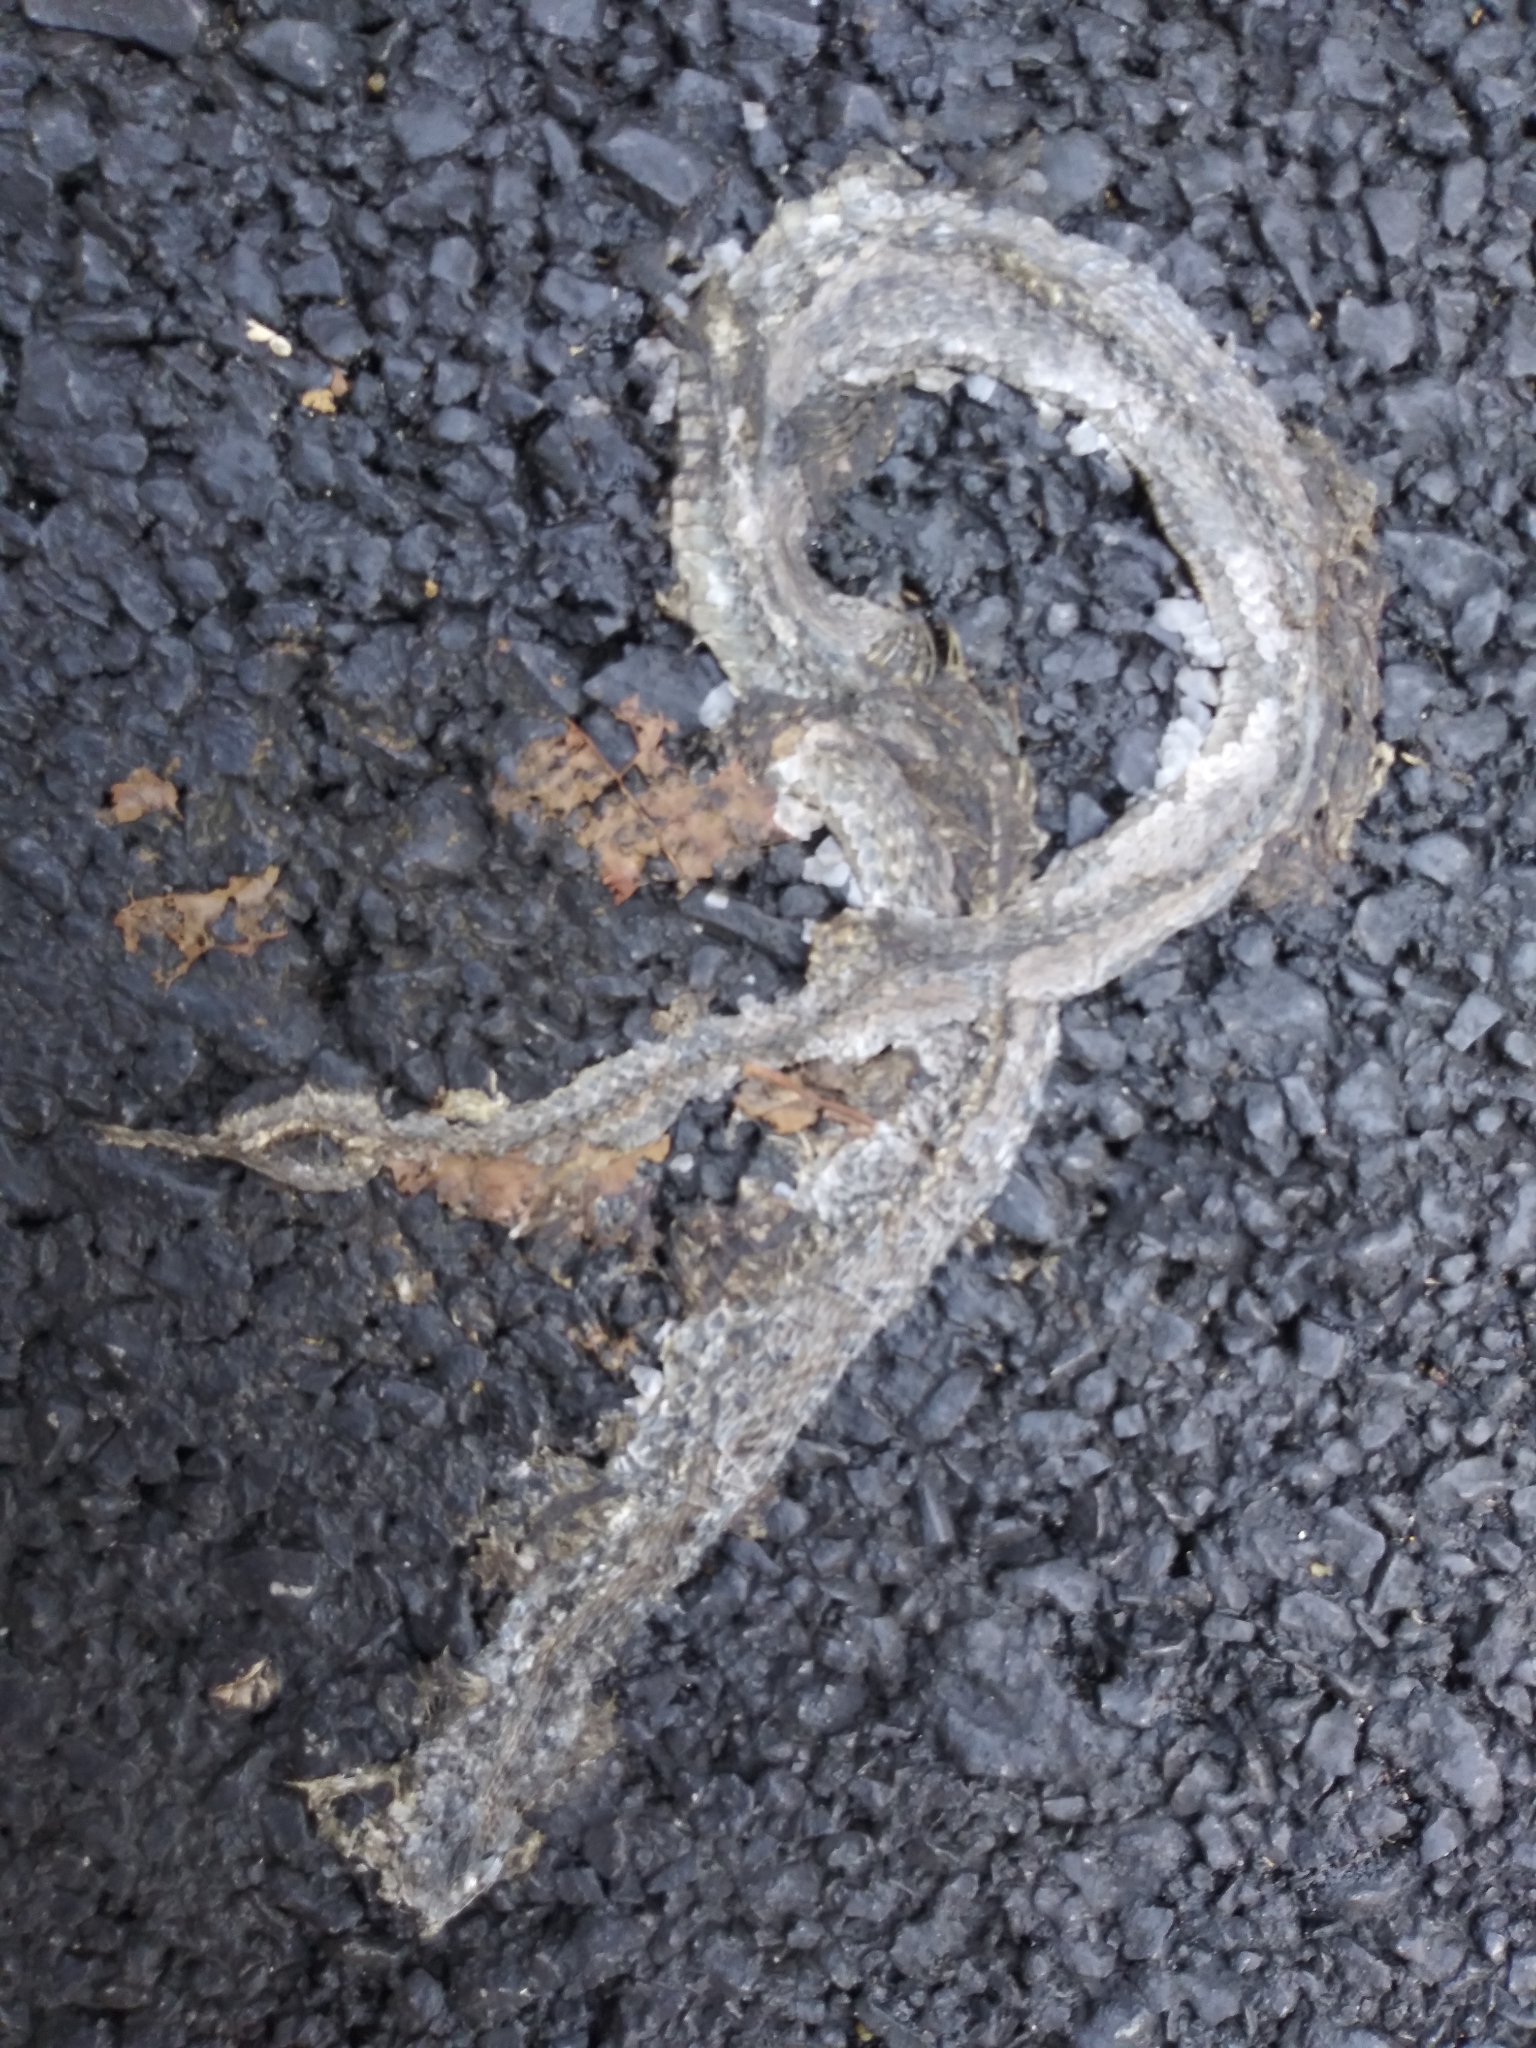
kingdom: Animalia
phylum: Chordata
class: Squamata
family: Colubridae
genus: Storeria
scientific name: Storeria dekayi
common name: (dekay’s) brown snake
